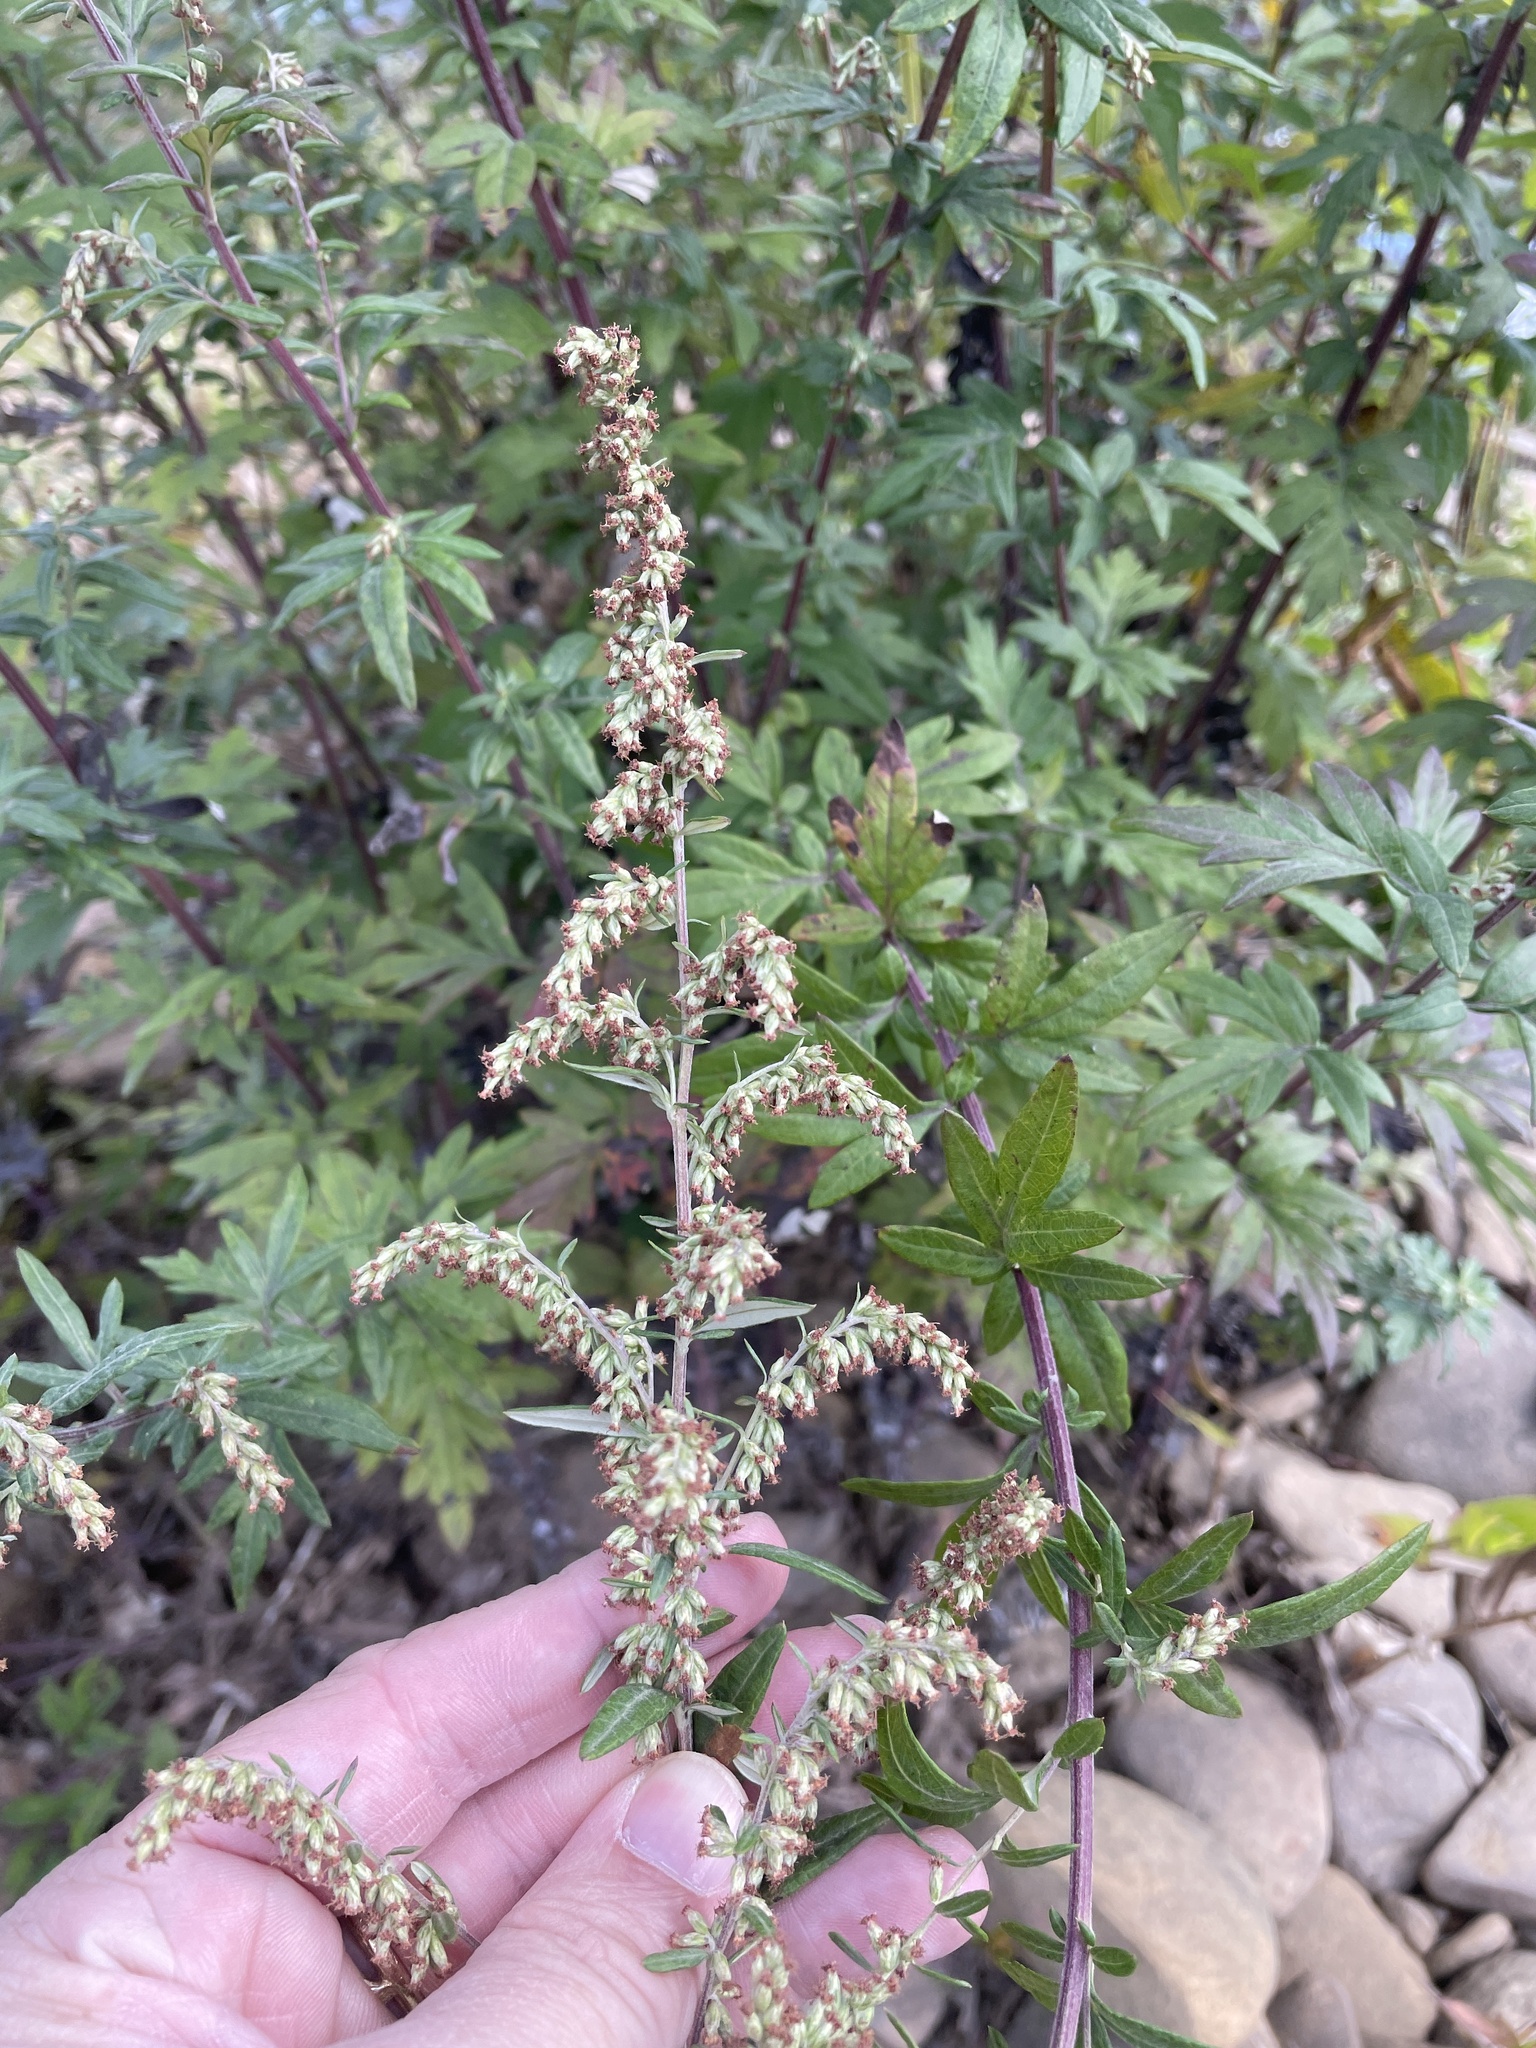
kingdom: Plantae
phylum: Tracheophyta
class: Magnoliopsida
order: Asterales
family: Asteraceae
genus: Artemisia
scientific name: Artemisia vulgaris
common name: Mugwort
